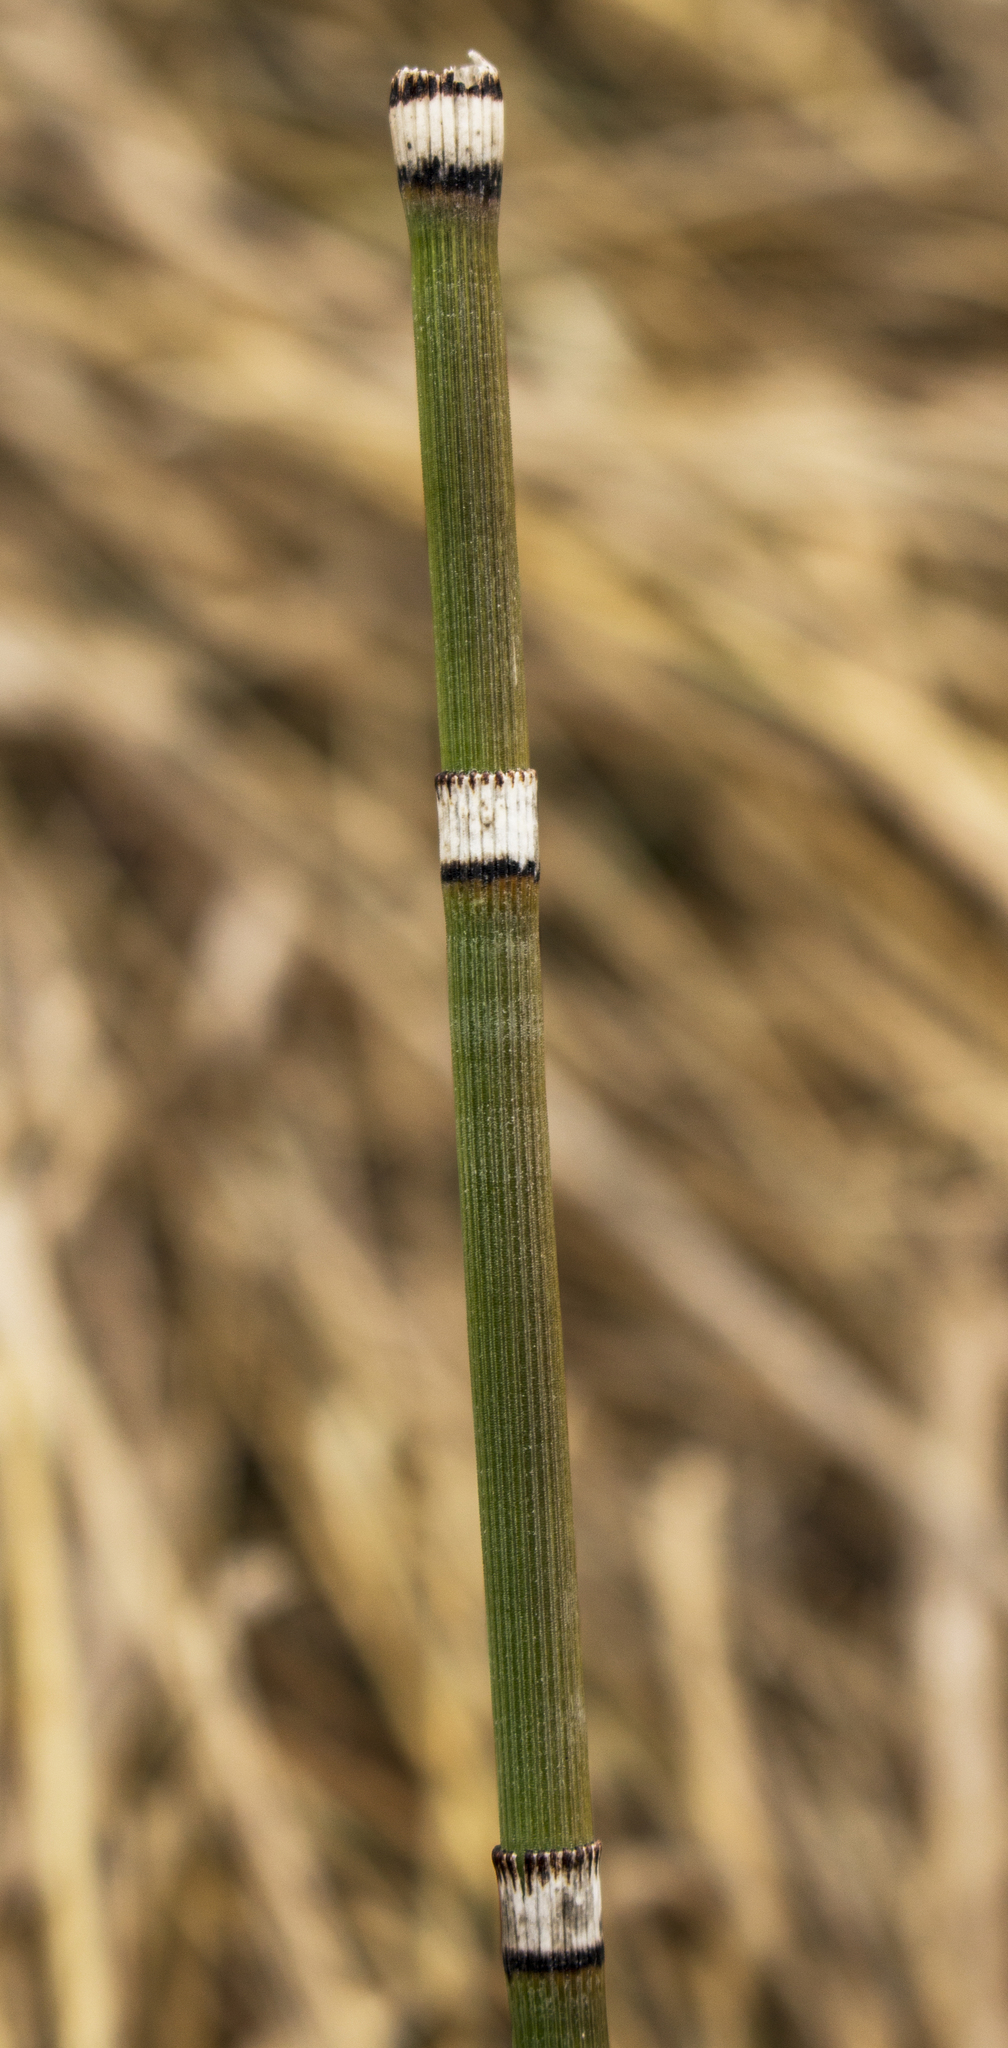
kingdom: Plantae
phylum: Tracheophyta
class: Polypodiopsida
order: Equisetales
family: Equisetaceae
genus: Equisetum
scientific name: Equisetum hyemale
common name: Rough horsetail
